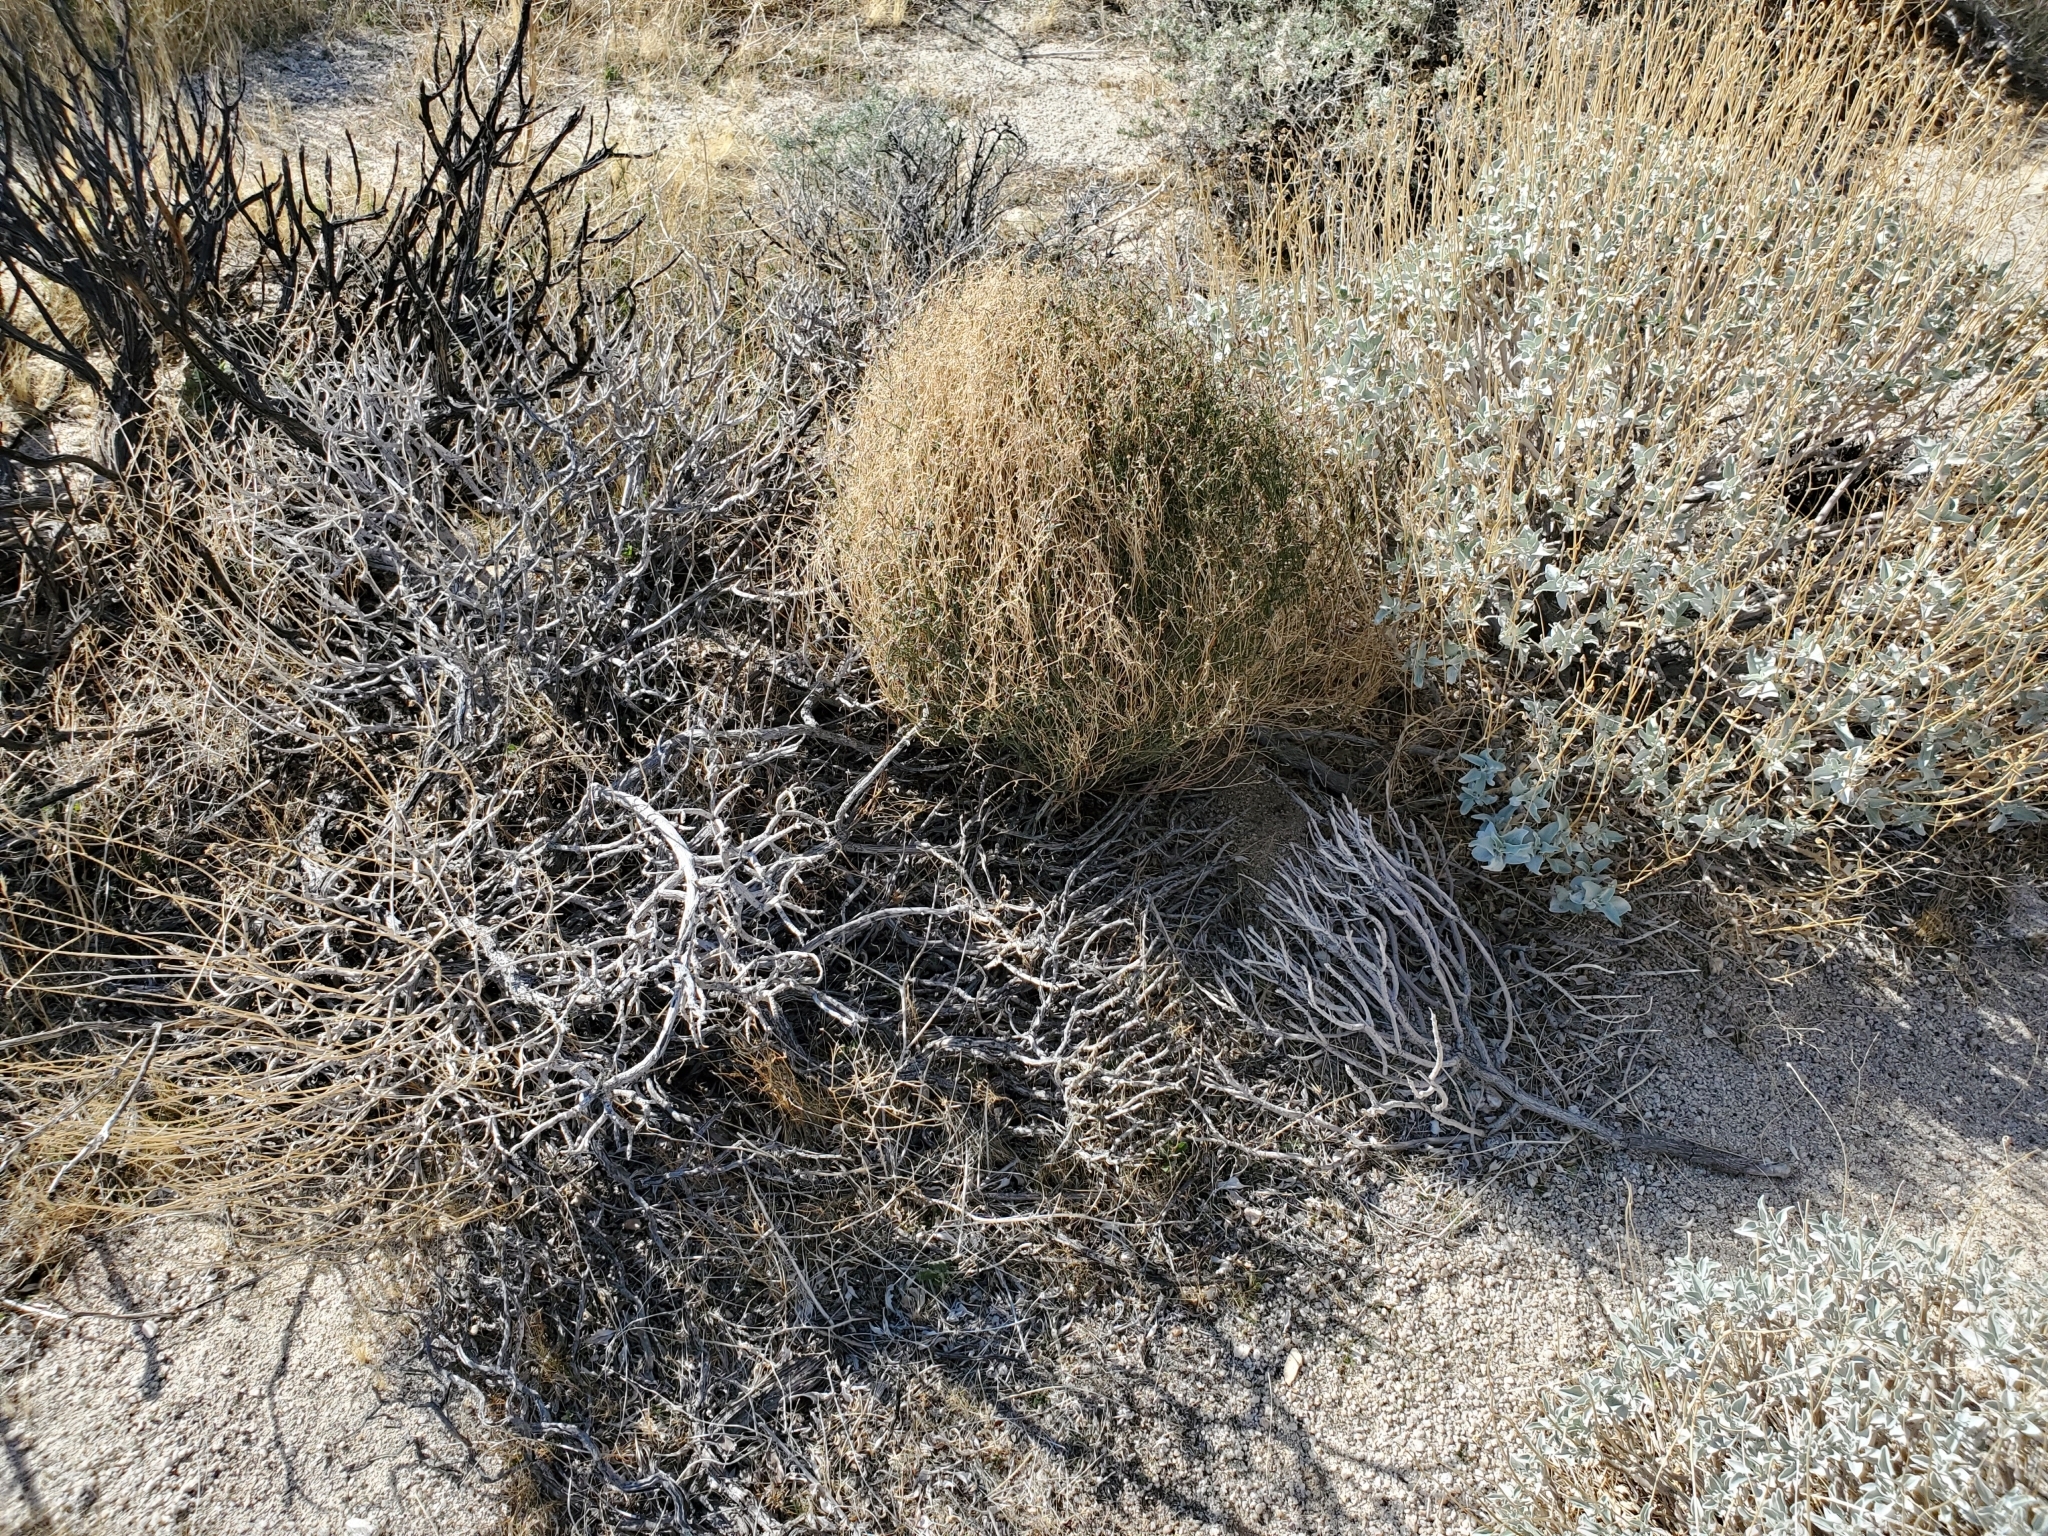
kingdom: Plantae
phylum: Tracheophyta
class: Magnoliopsida
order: Malpighiales
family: Euphorbiaceae
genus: Stillingia
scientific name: Stillingia linearifolia
